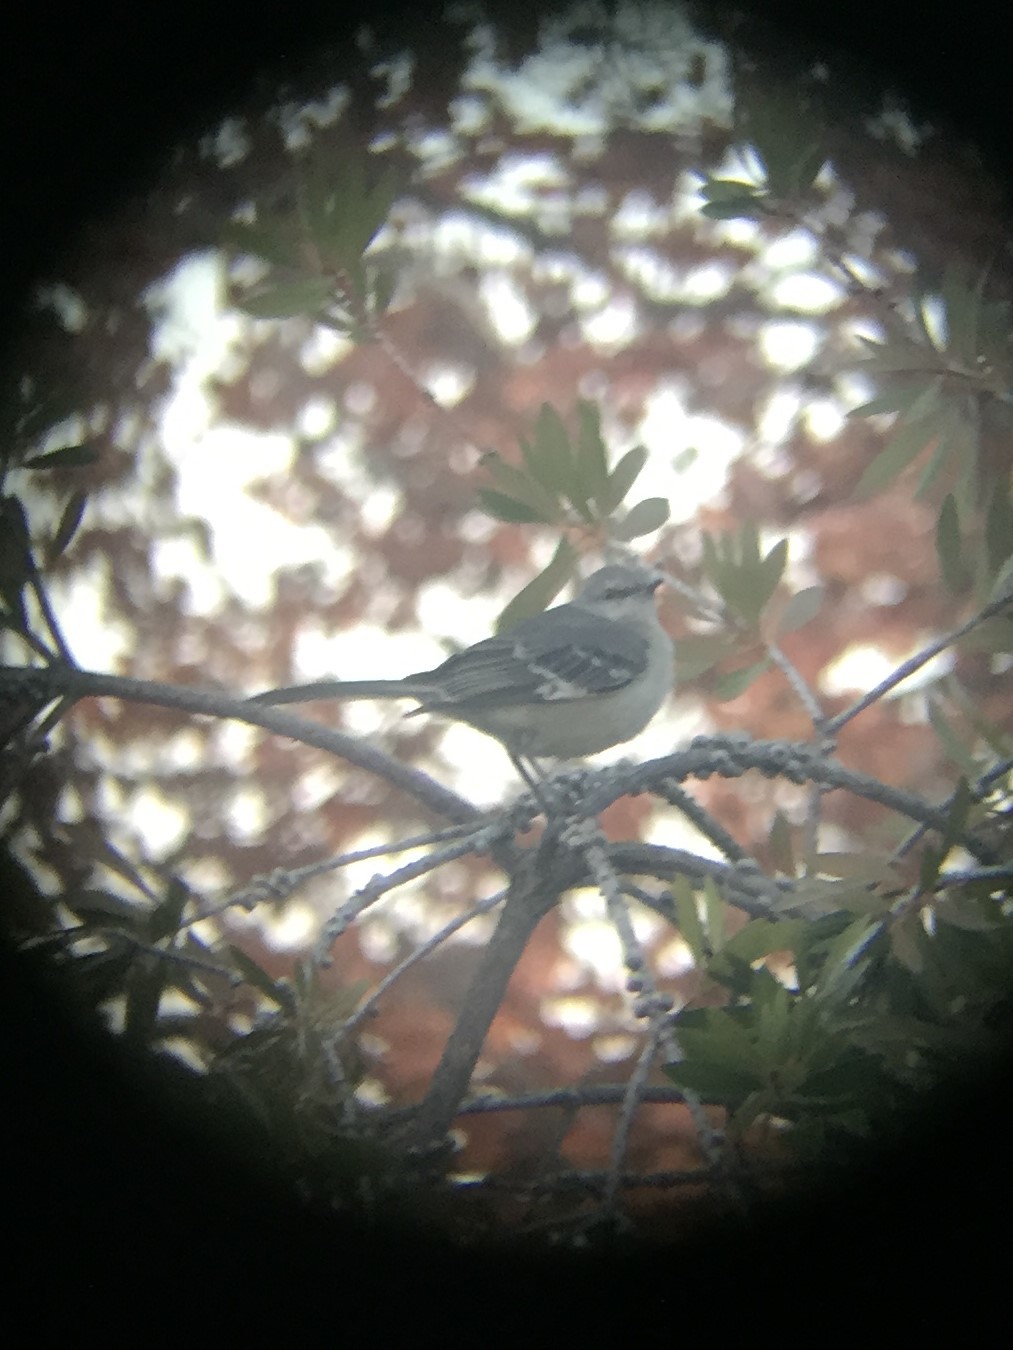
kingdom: Animalia
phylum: Chordata
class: Aves
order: Passeriformes
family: Mimidae
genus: Mimus
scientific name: Mimus polyglottos
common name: Northern mockingbird
